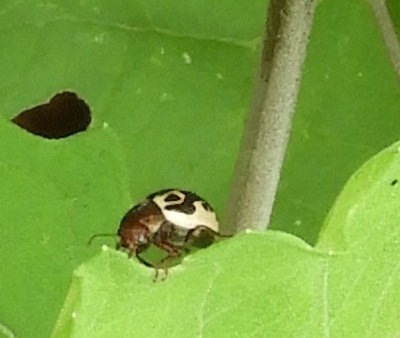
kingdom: Animalia
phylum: Arthropoda
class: Insecta
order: Coleoptera
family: Chrysomelidae
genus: Calligrapha
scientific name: Calligrapha
